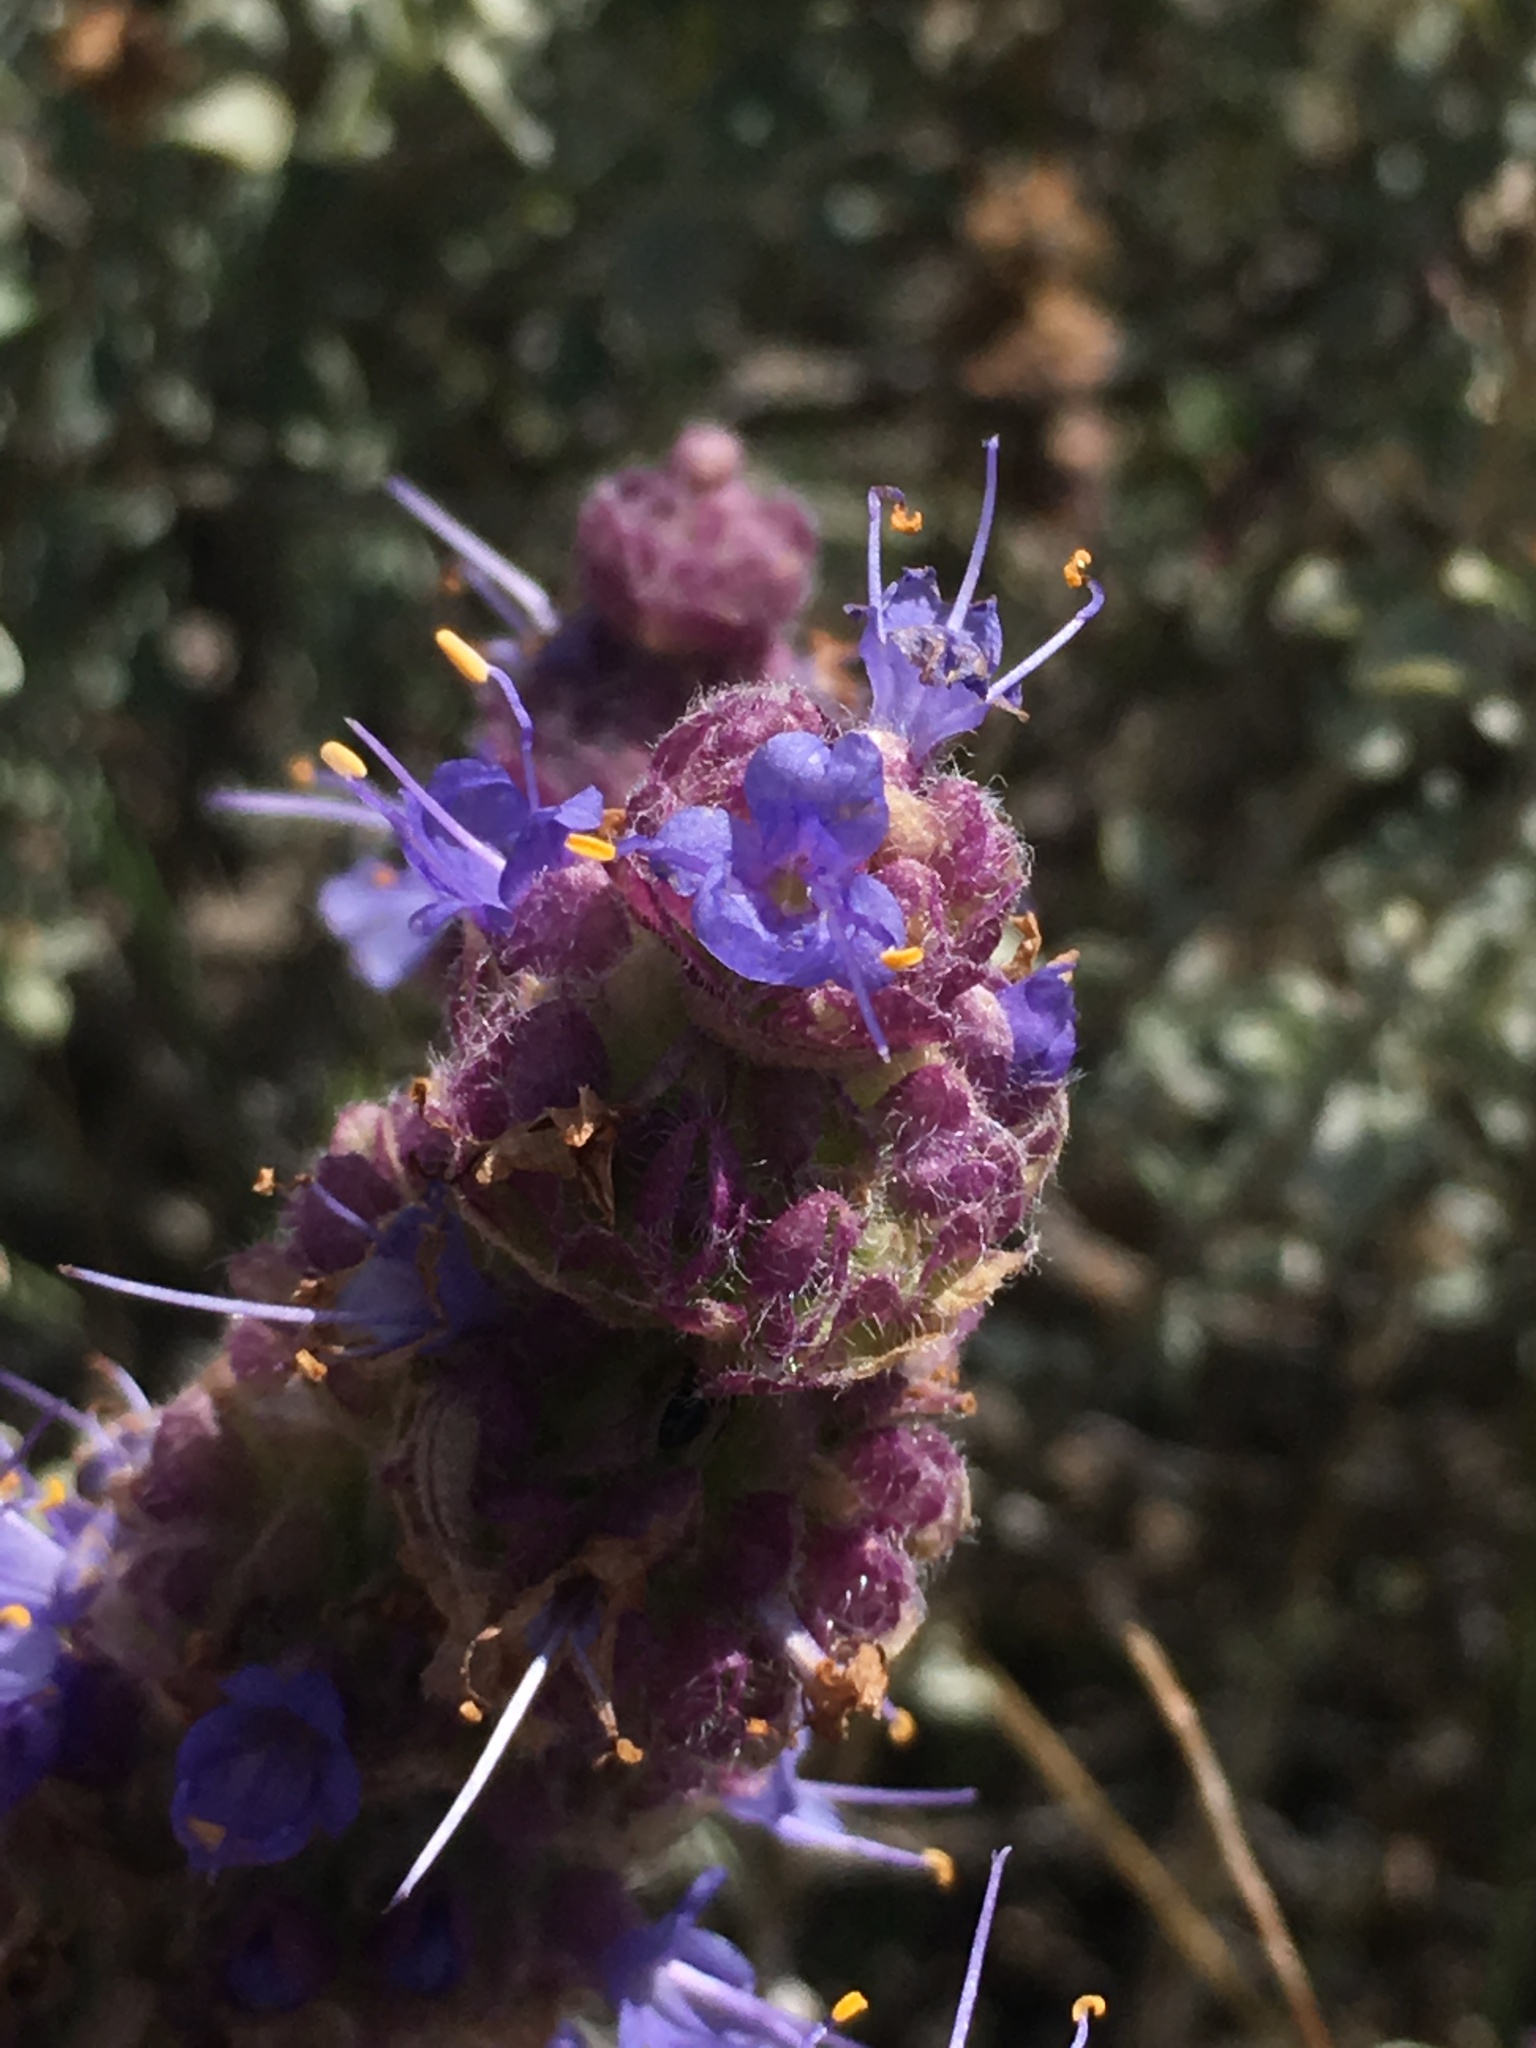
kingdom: Plantae
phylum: Tracheophyta
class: Magnoliopsida
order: Lamiales
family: Lamiaceae
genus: Salvia
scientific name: Salvia dorrii
